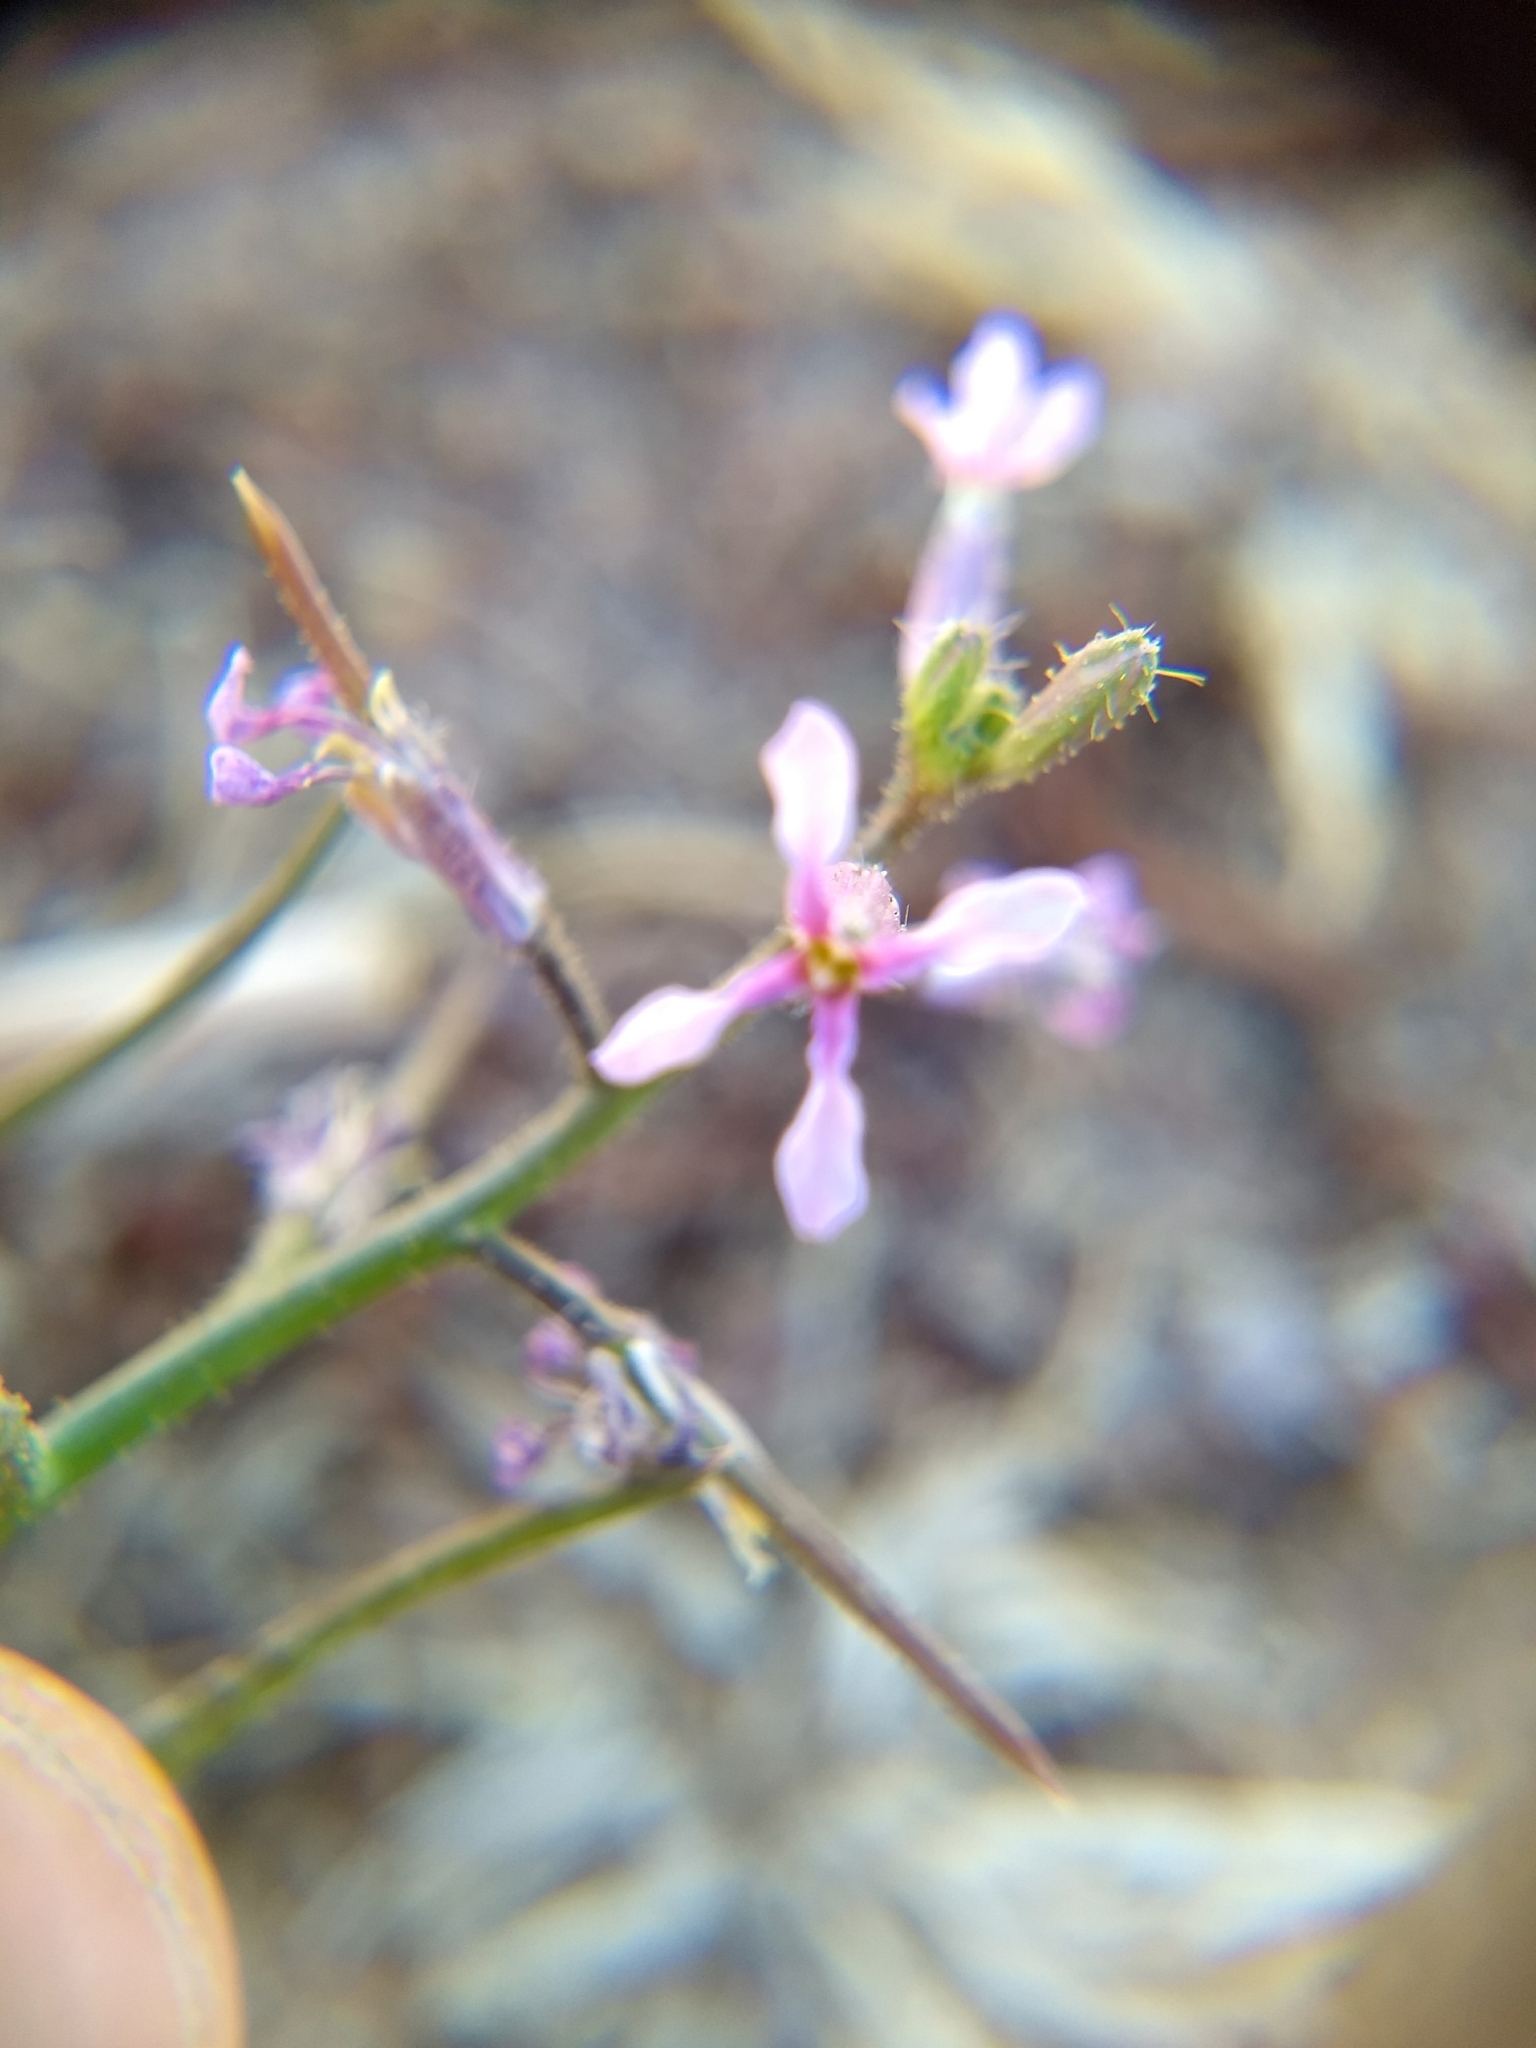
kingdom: Plantae
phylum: Tracheophyta
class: Magnoliopsida
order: Brassicales
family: Brassicaceae
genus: Chorispora
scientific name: Chorispora tenella
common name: Crossflower
